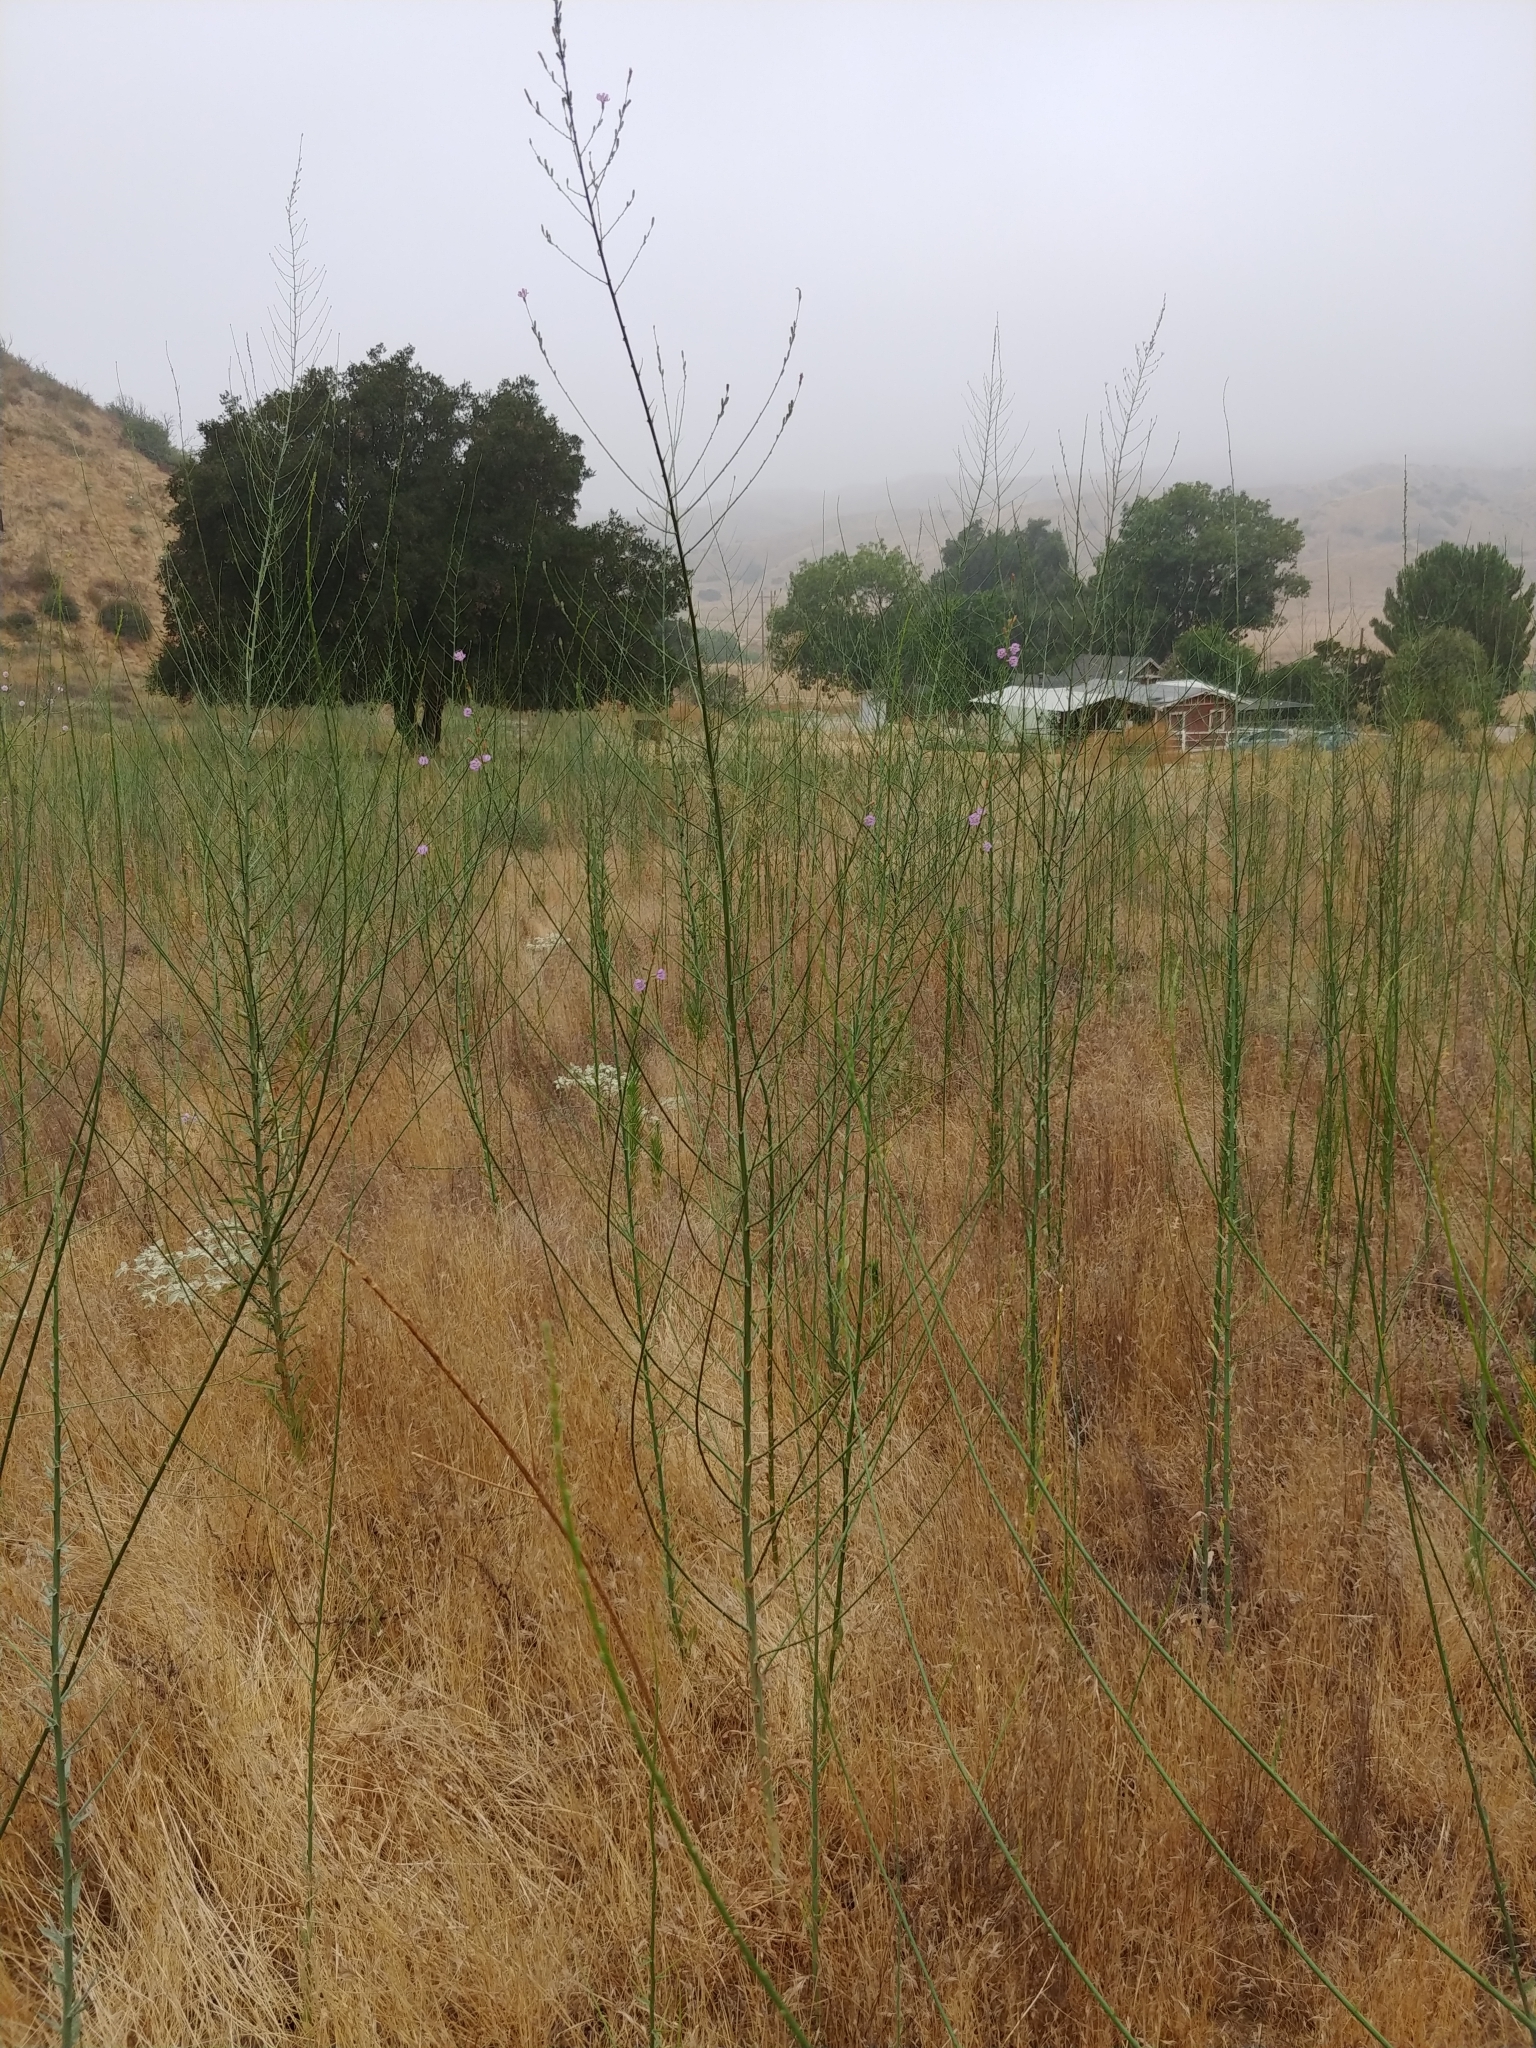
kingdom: Plantae
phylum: Tracheophyta
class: Magnoliopsida
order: Asterales
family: Asteraceae
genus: Stephanomeria
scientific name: Stephanomeria virgata
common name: Virgate wirelettuce
